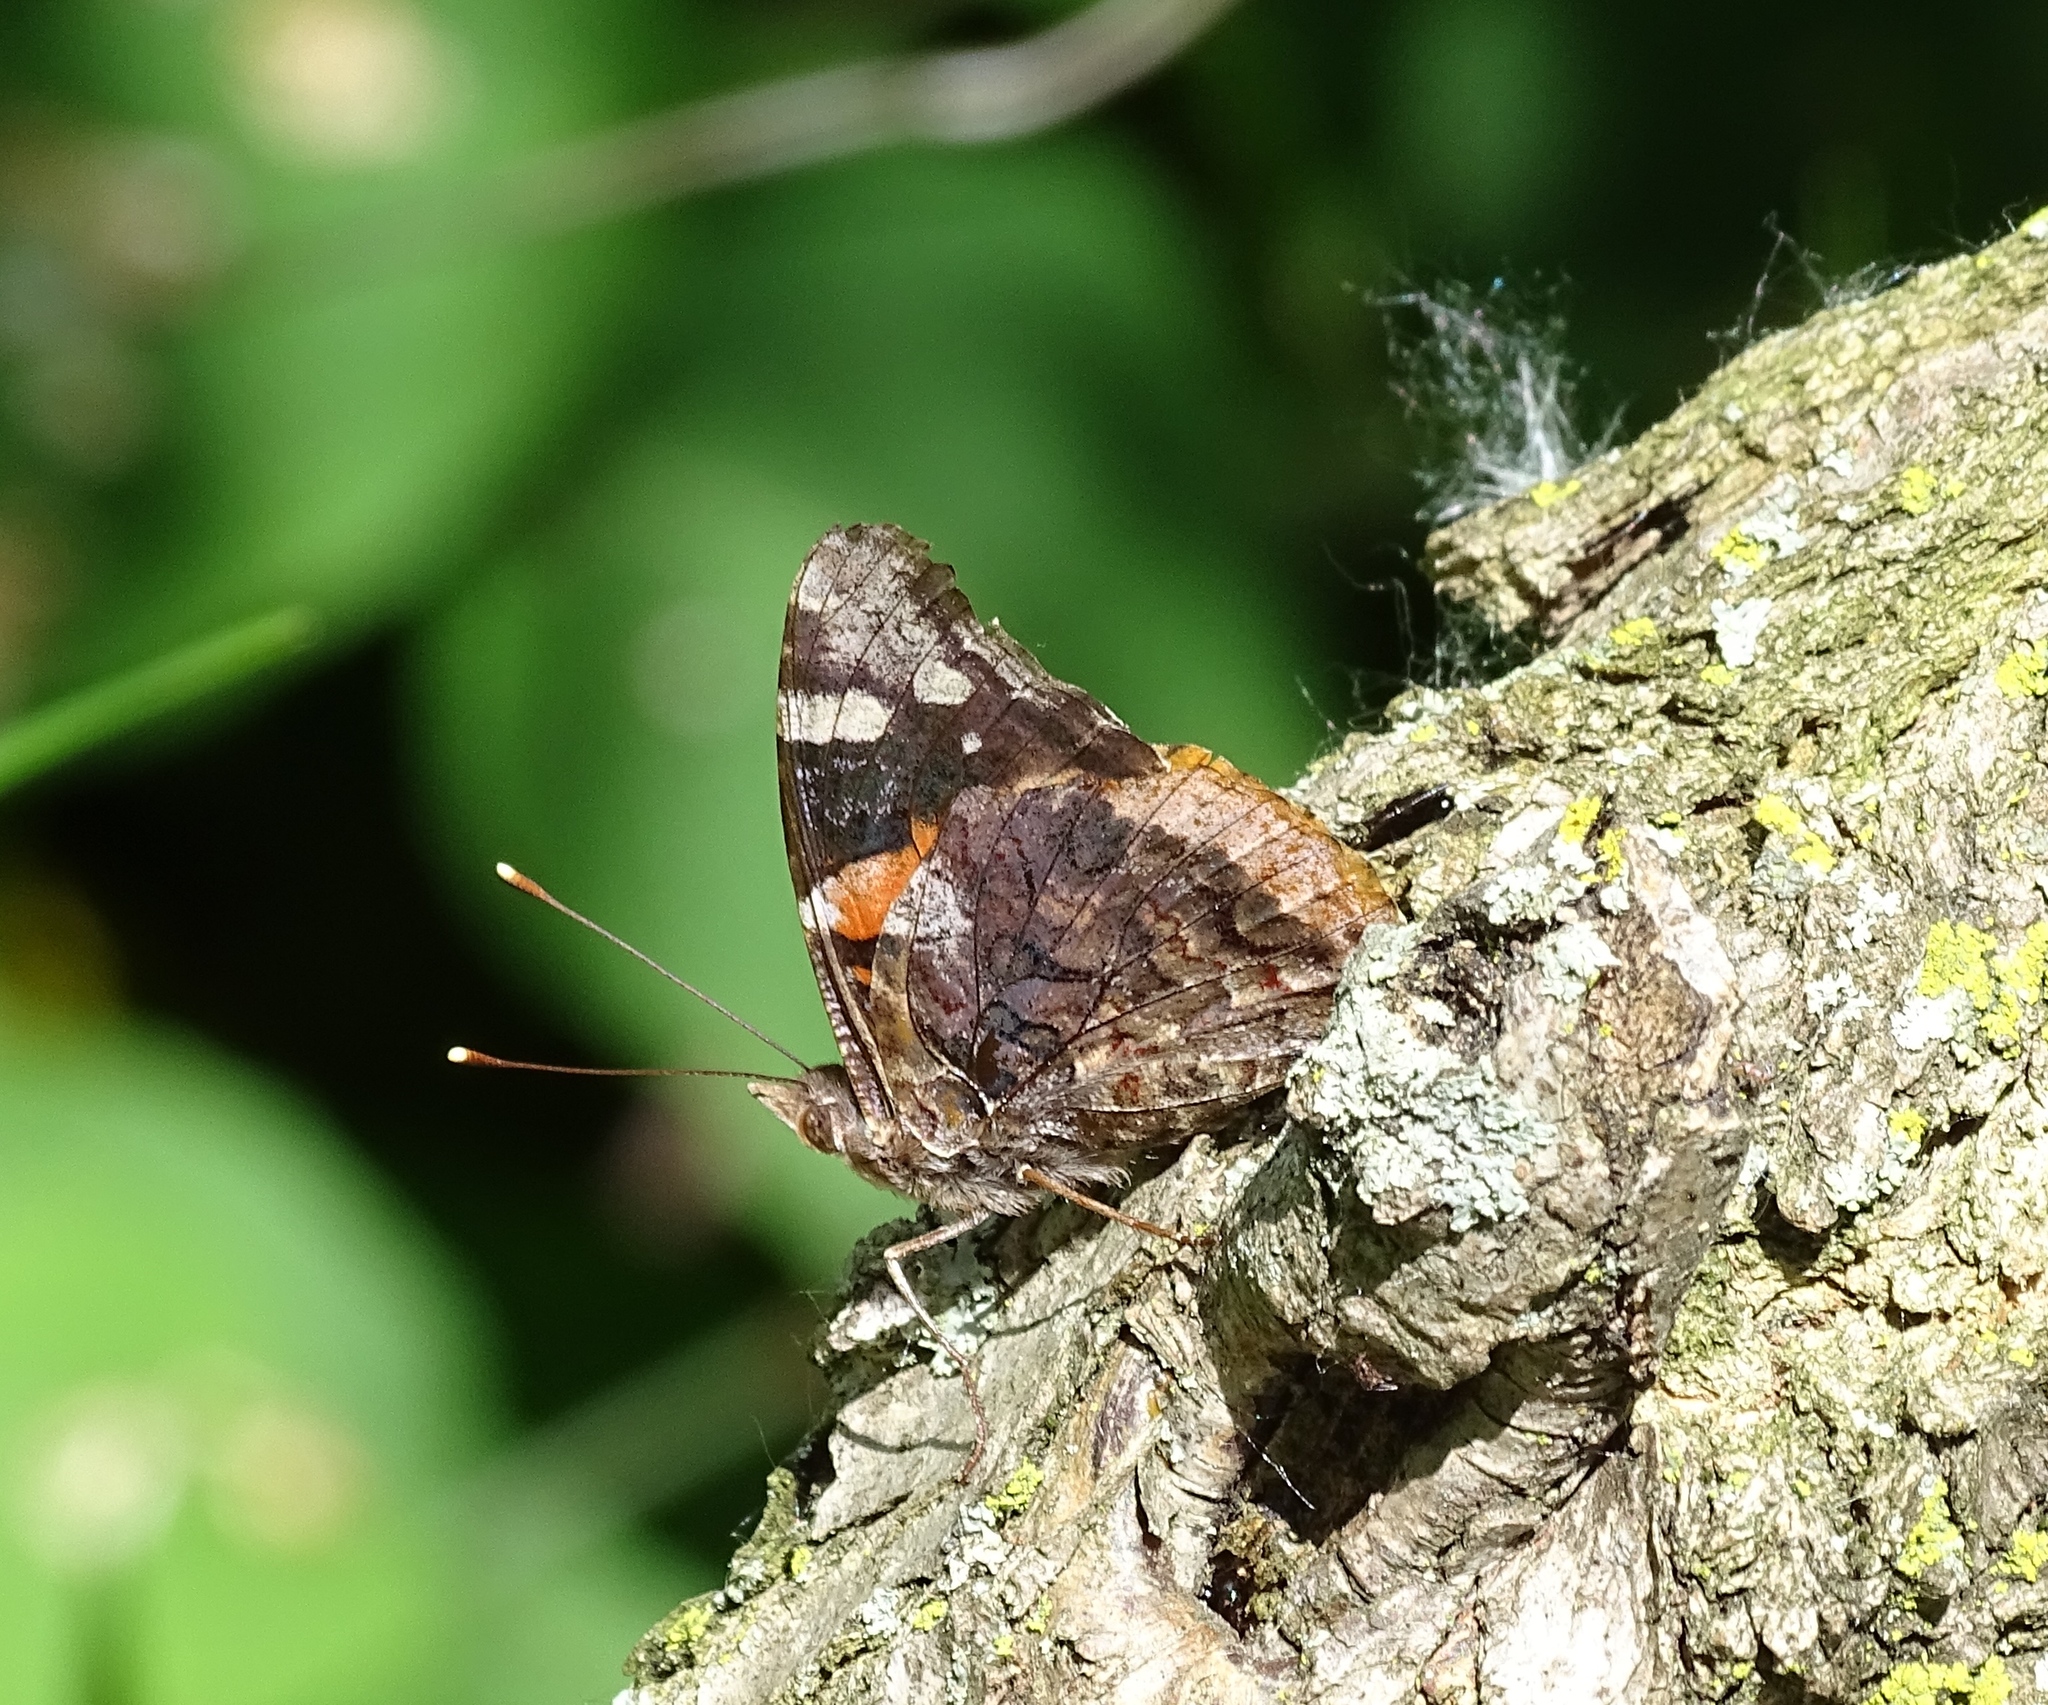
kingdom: Animalia
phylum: Arthropoda
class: Insecta
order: Lepidoptera
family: Nymphalidae
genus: Vanessa
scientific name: Vanessa atalanta
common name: Red admiral
